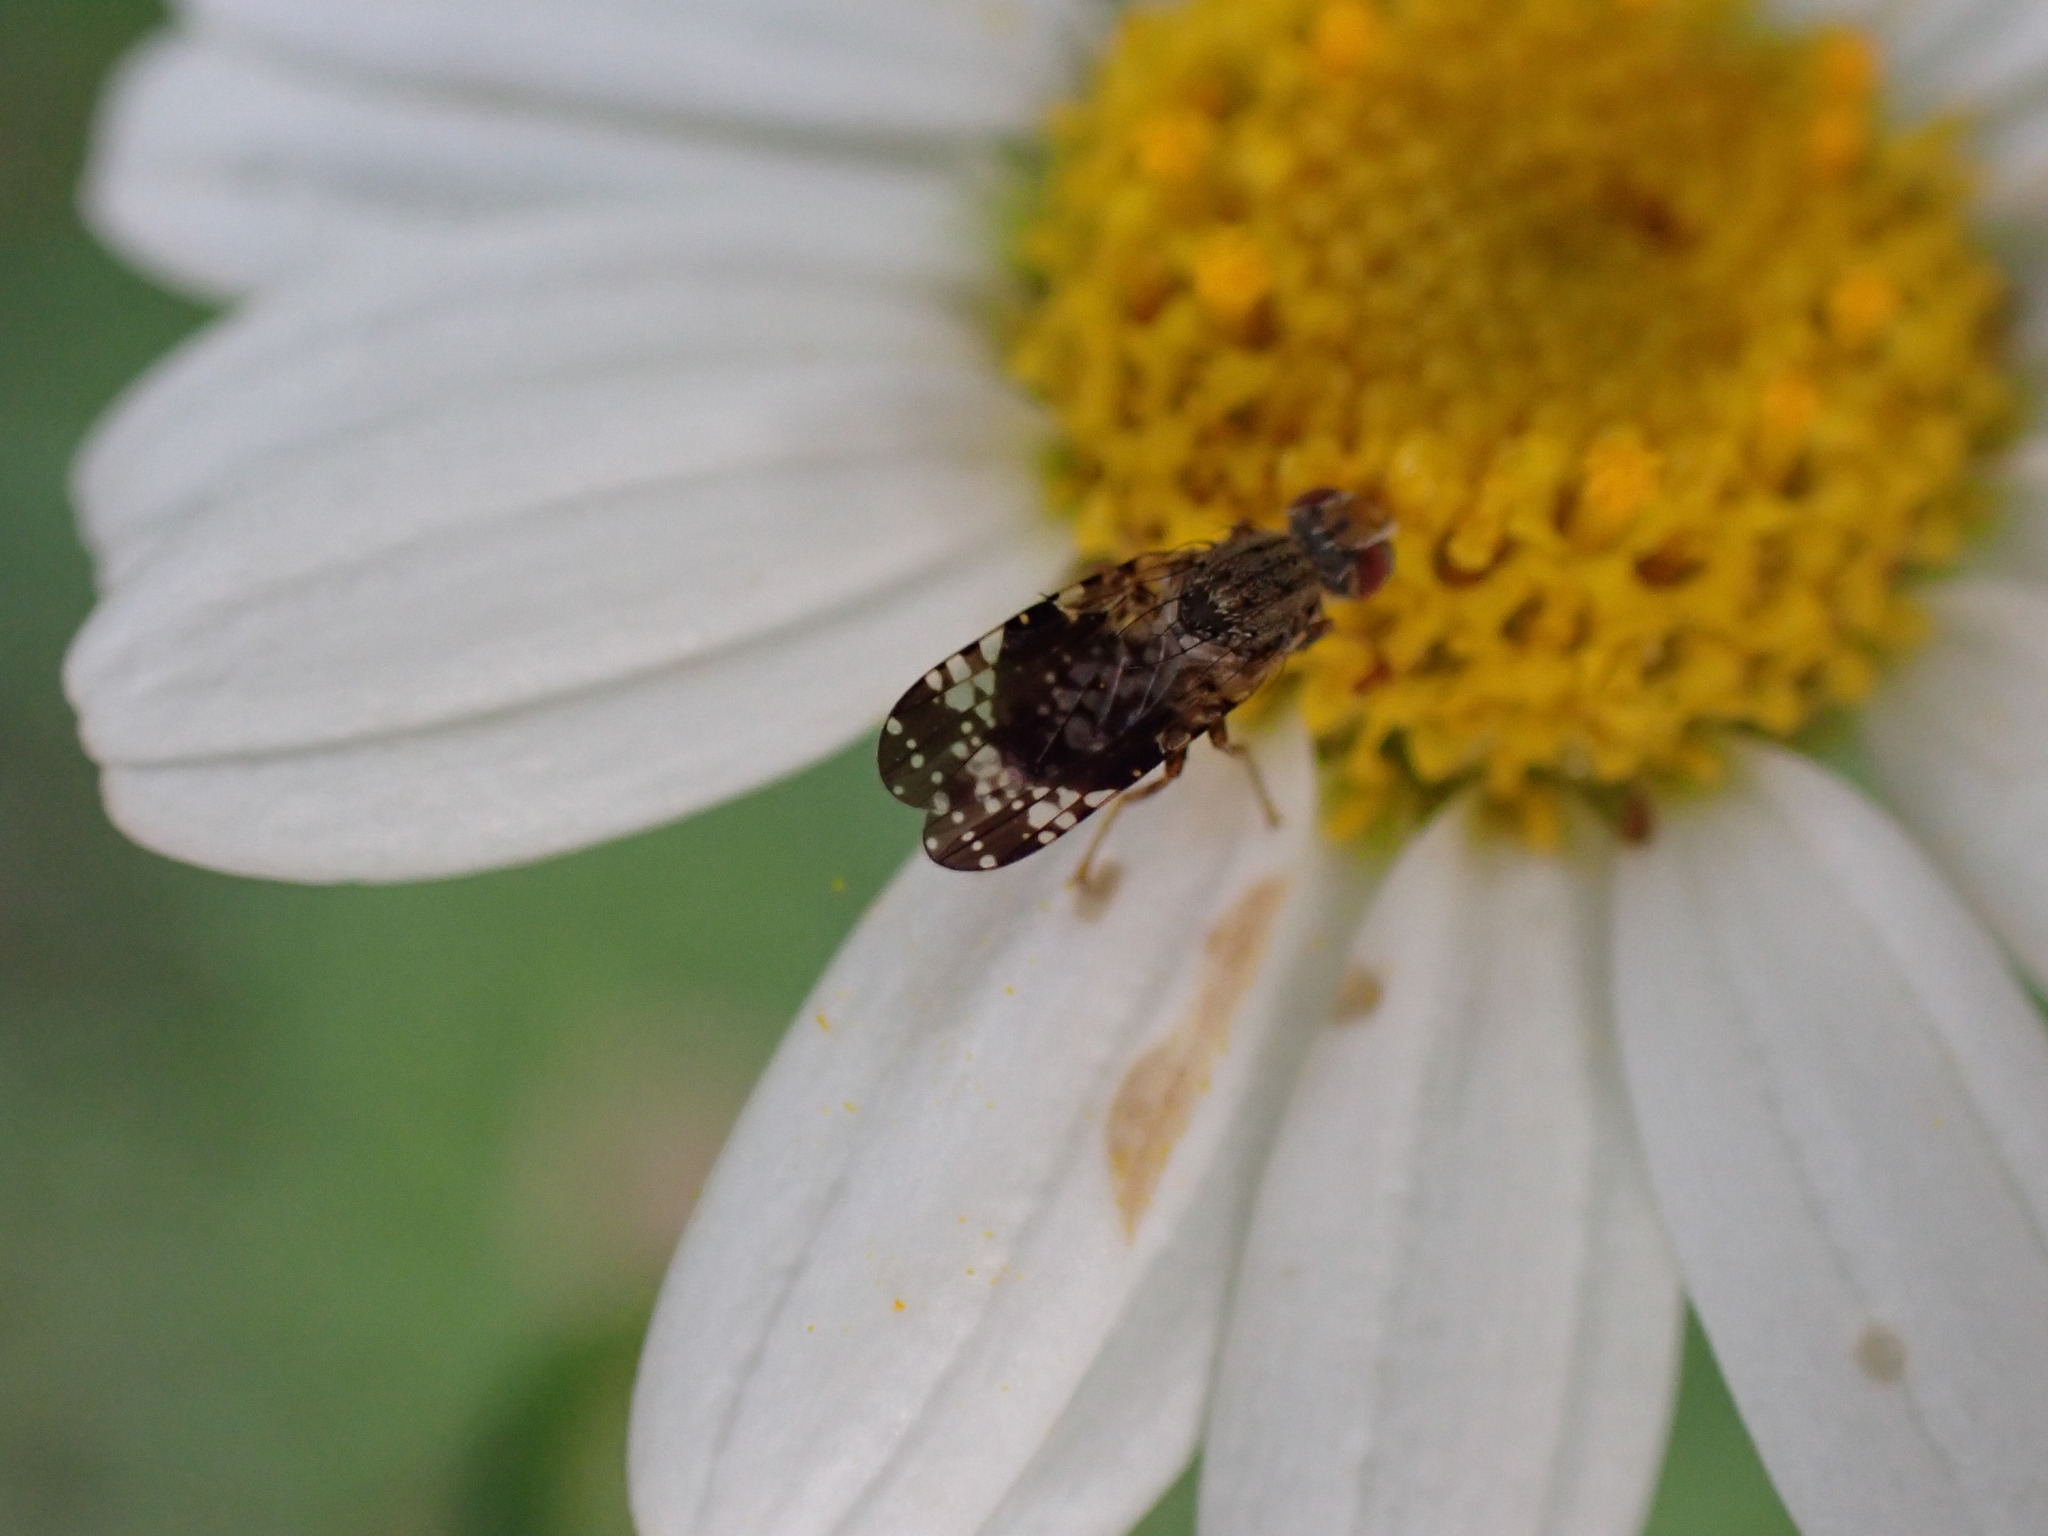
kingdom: Animalia
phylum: Arthropoda
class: Insecta
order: Diptera
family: Tephritidae
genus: Campiglossa
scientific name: Campiglossa reticulata
